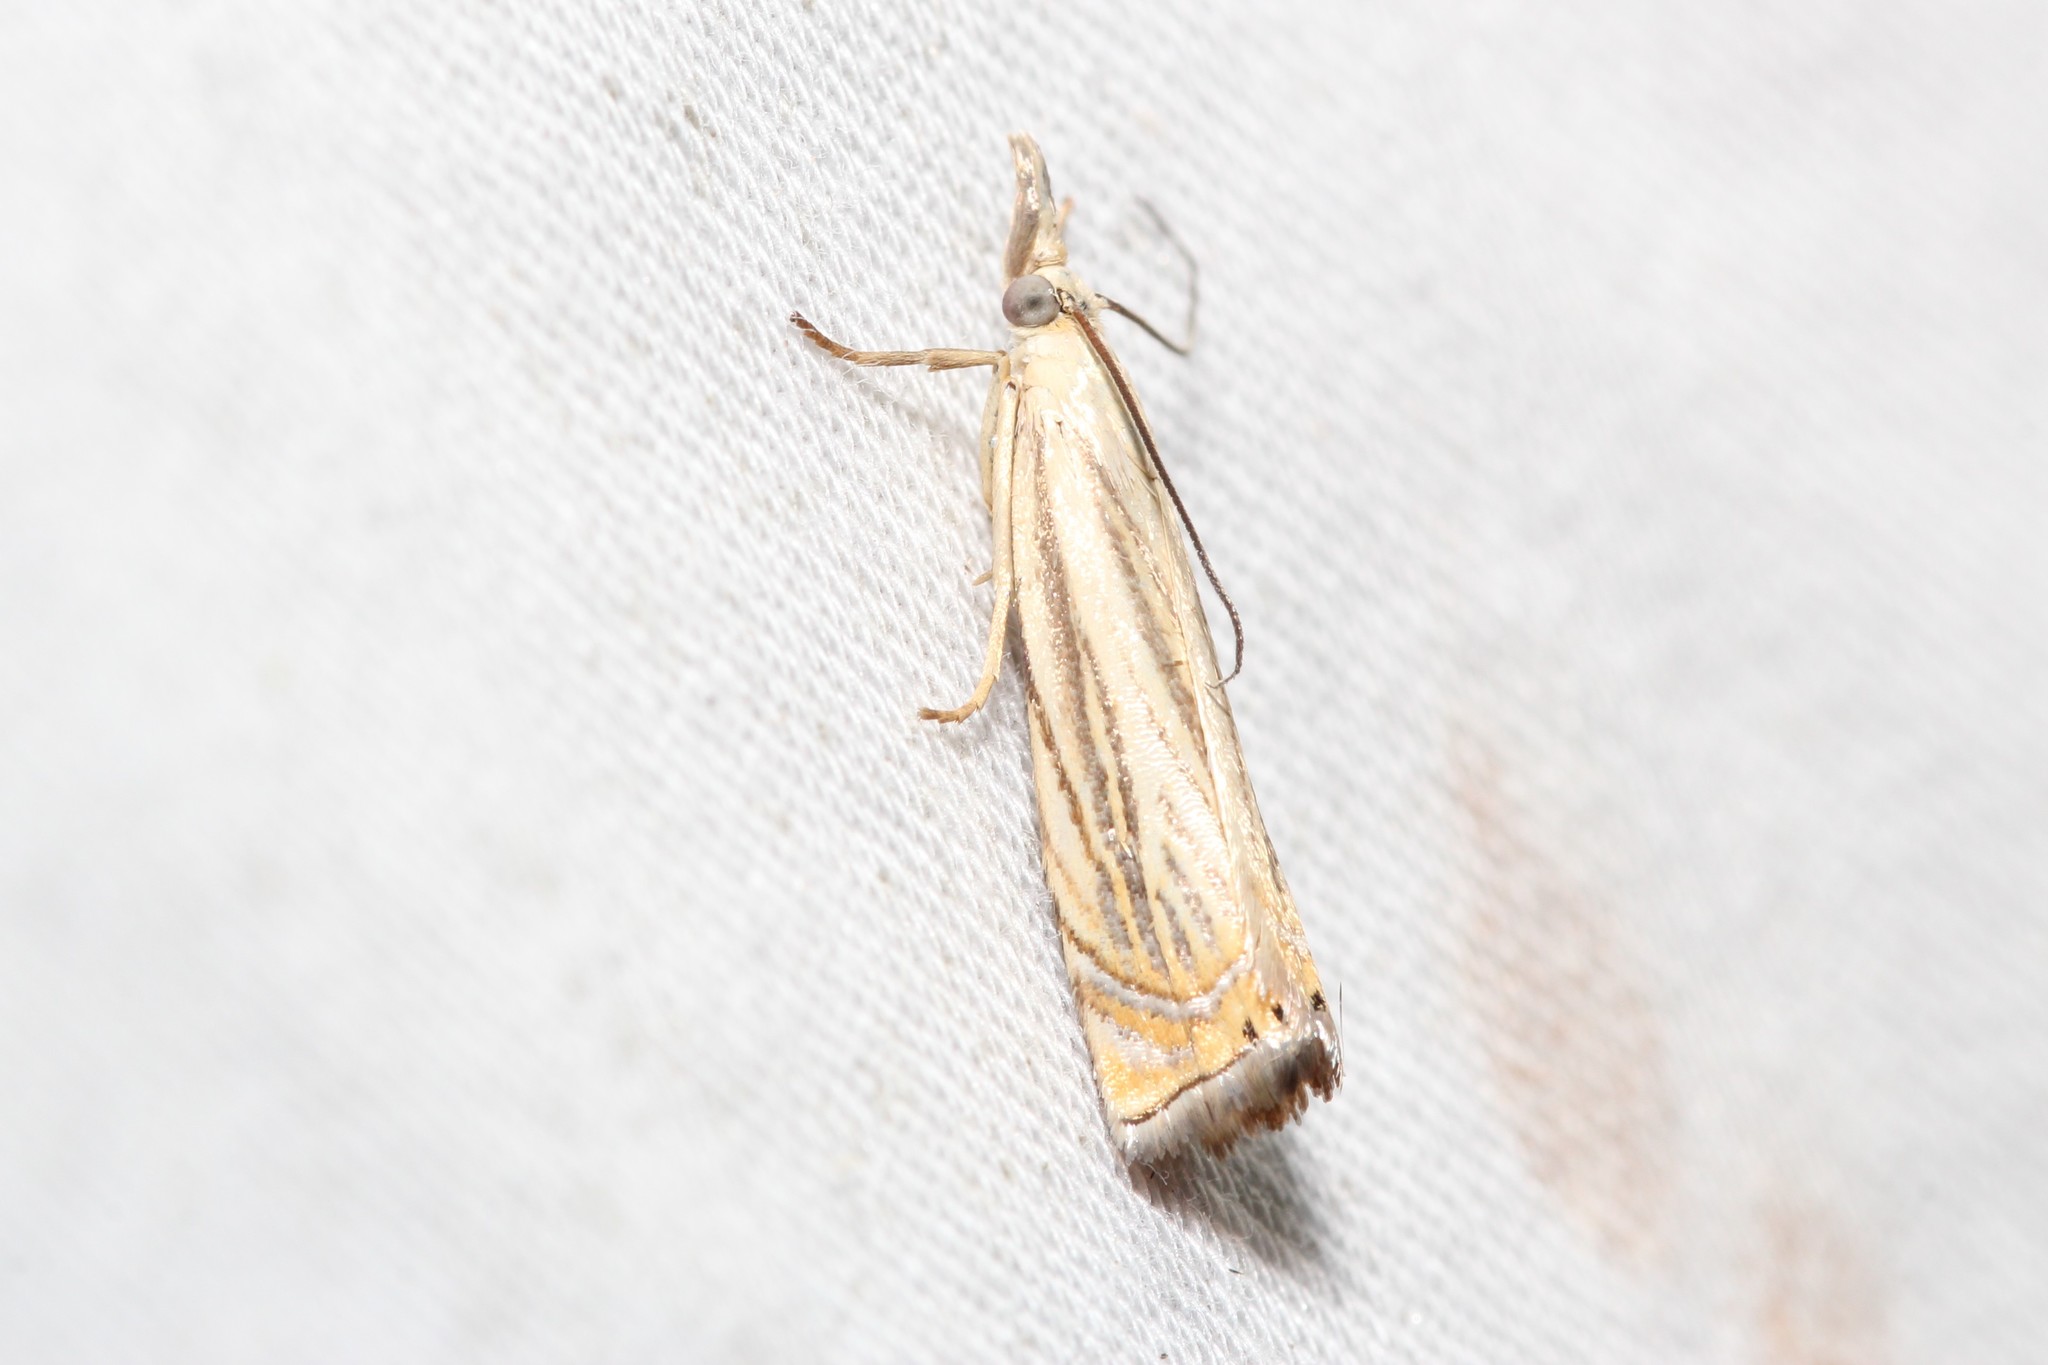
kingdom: Animalia
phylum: Arthropoda
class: Insecta
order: Lepidoptera
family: Crambidae
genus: Chrysoteuchia
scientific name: Chrysoteuchia topiarius
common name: Topiary grass-veneer
